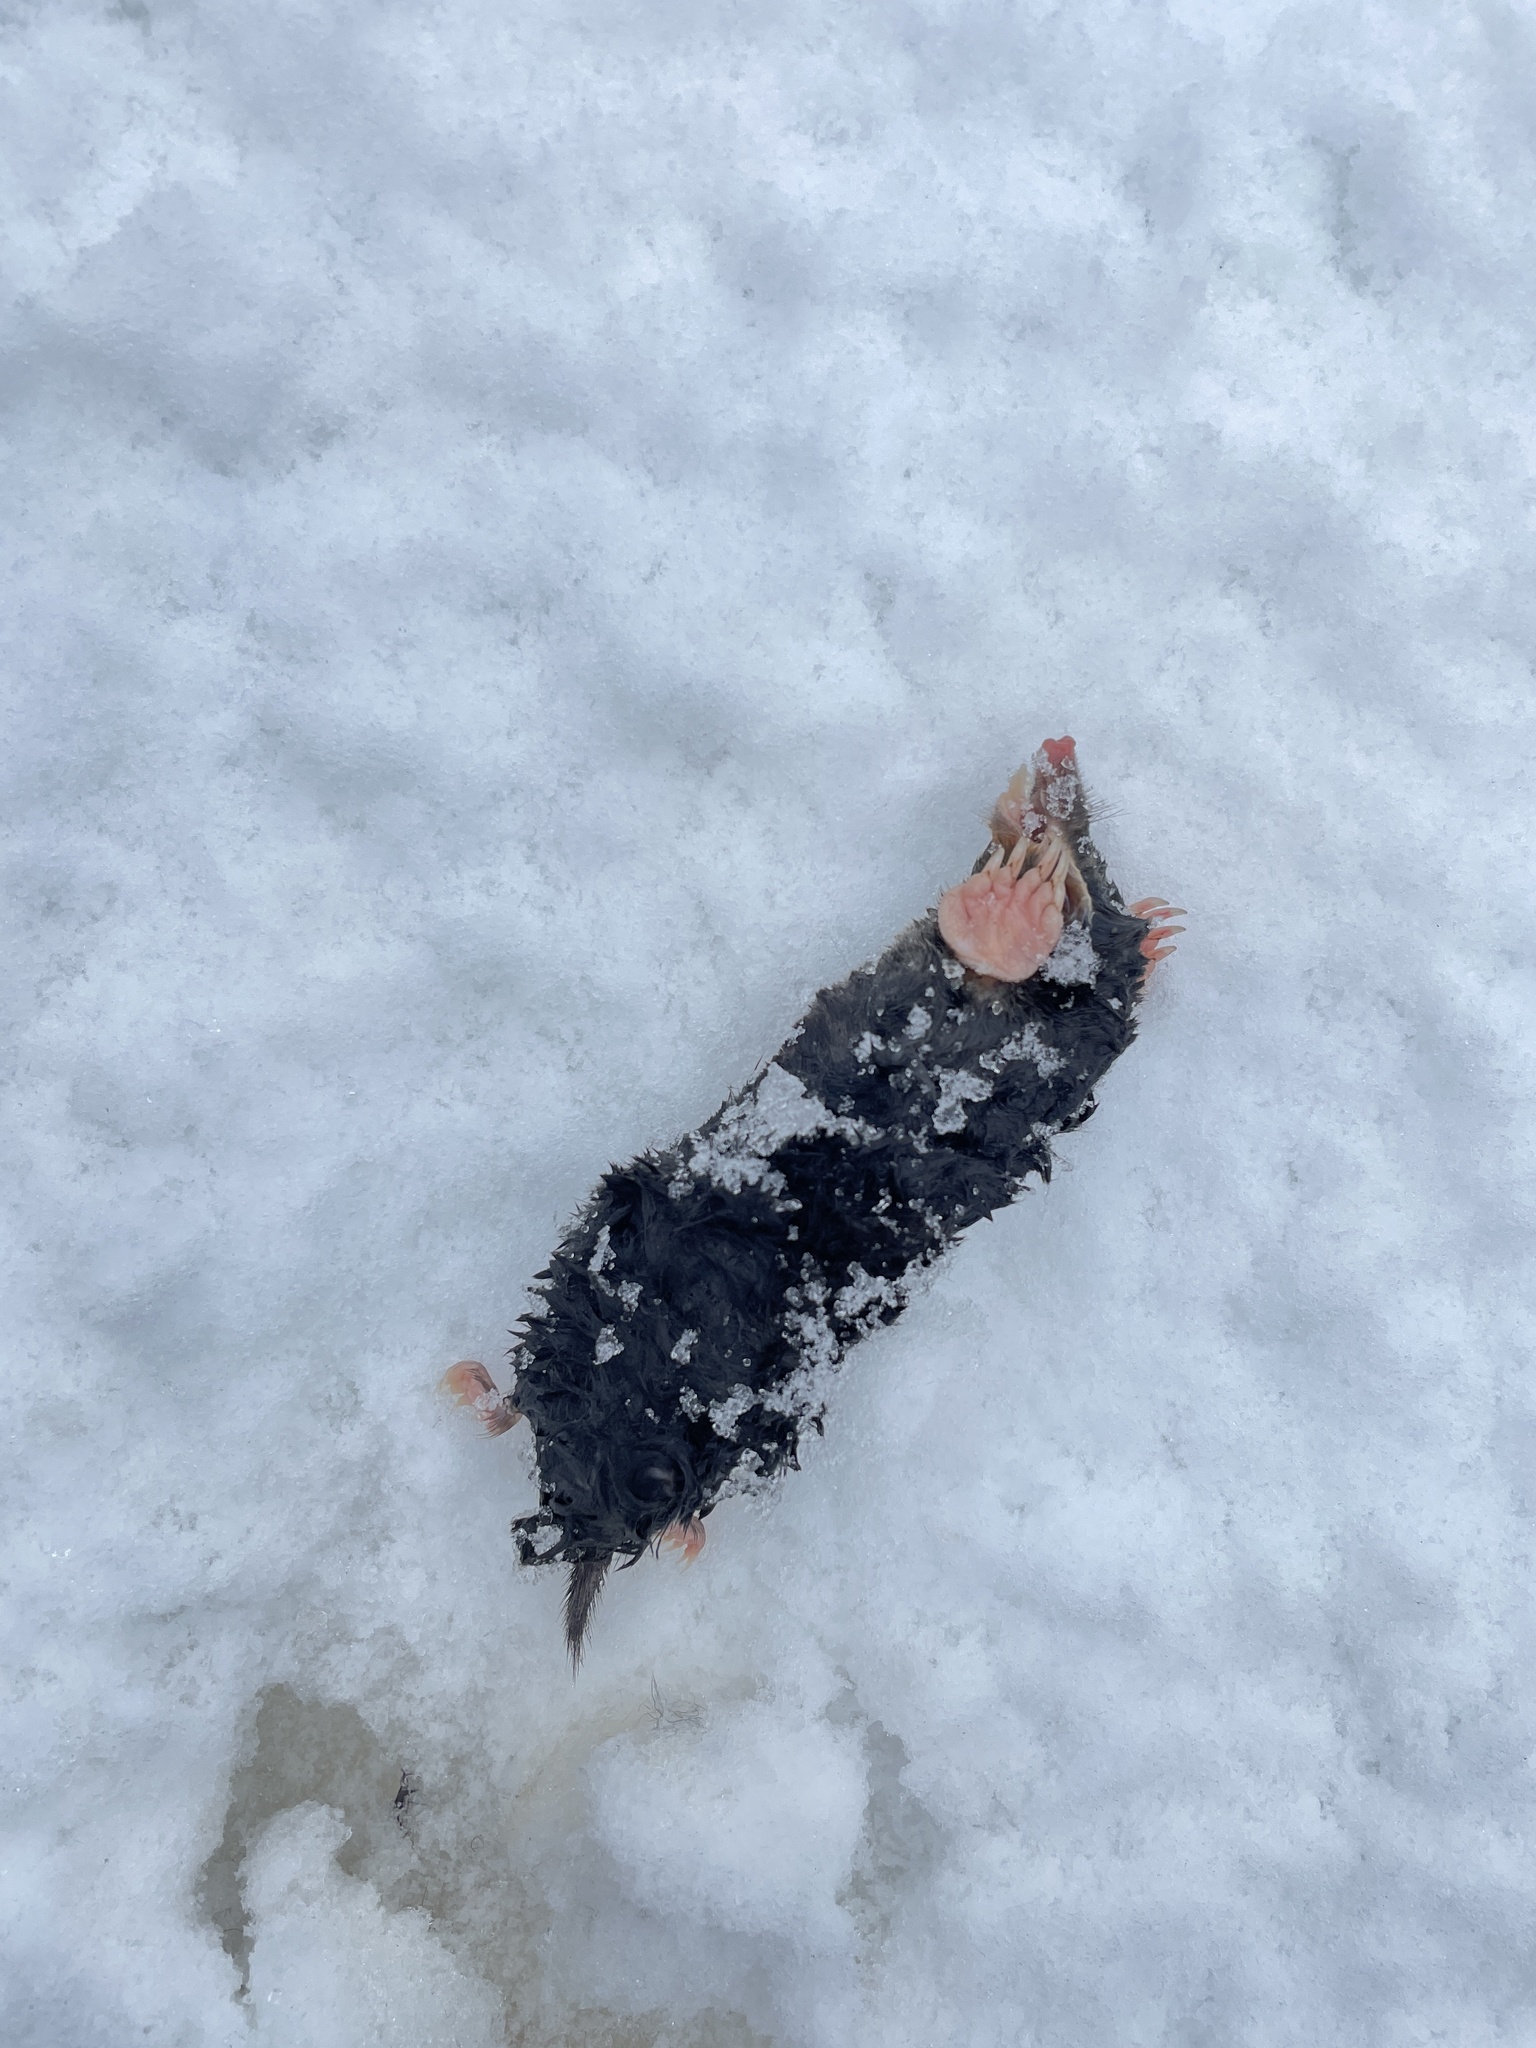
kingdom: Animalia
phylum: Chordata
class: Mammalia
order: Soricomorpha
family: Talpidae
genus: Talpa
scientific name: Talpa europaea
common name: European mole
